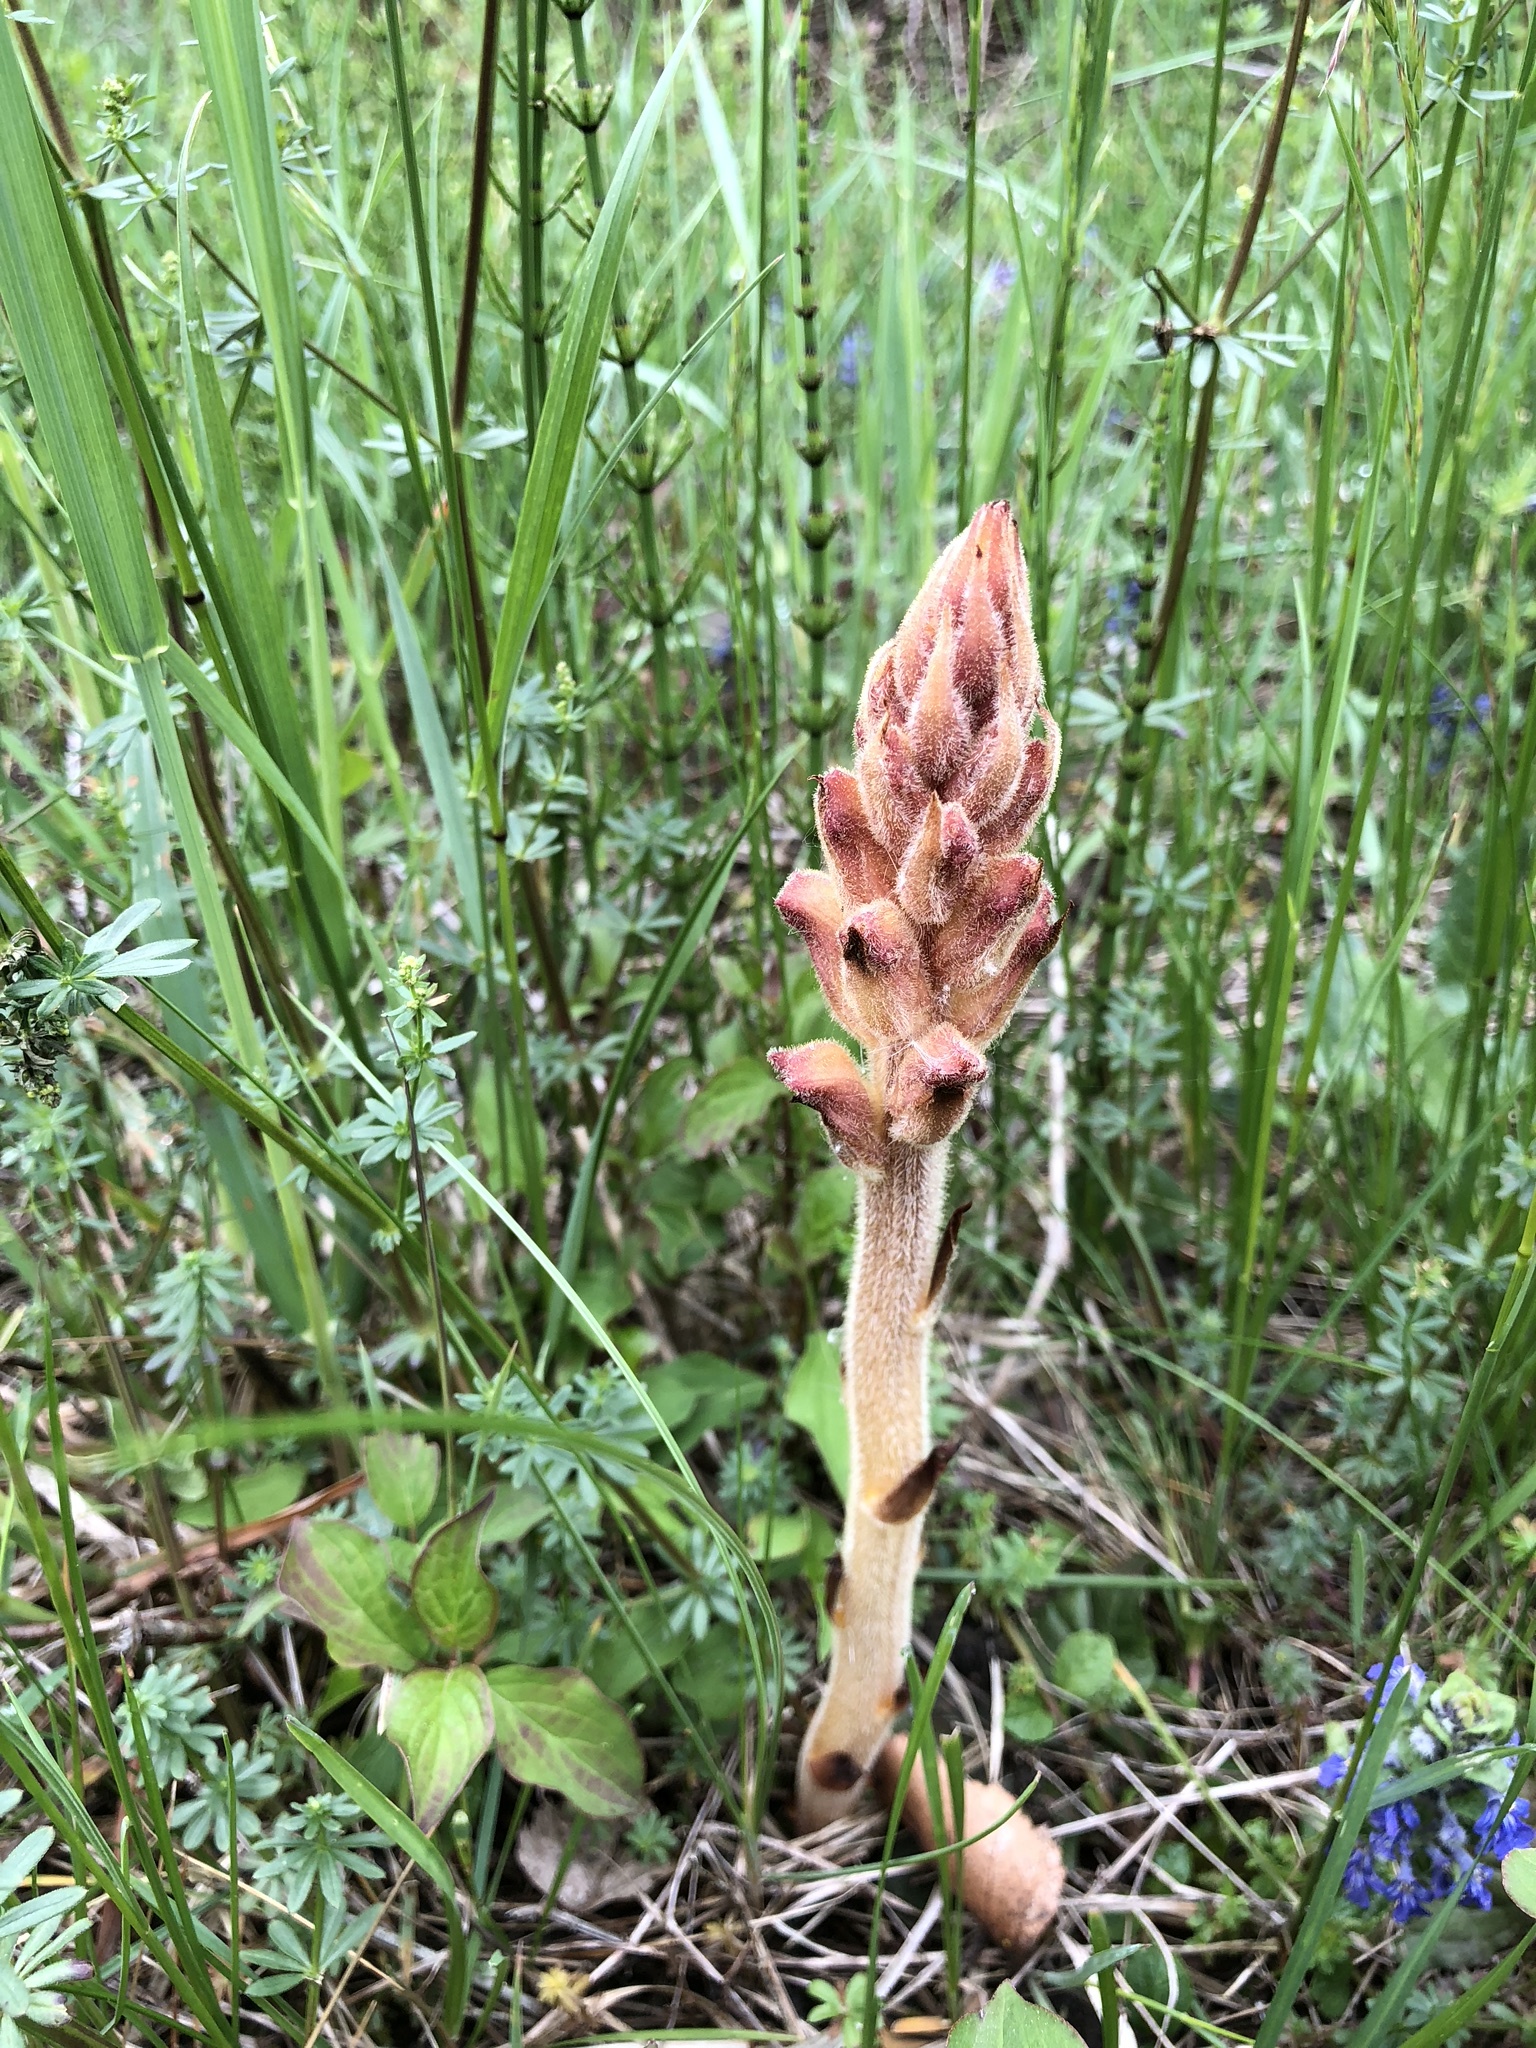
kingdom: Plantae
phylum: Tracheophyta
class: Magnoliopsida
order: Lamiales
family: Orobanchaceae
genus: Orobanche
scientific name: Orobanche caryophyllacea
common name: Bedstraw broomrape
